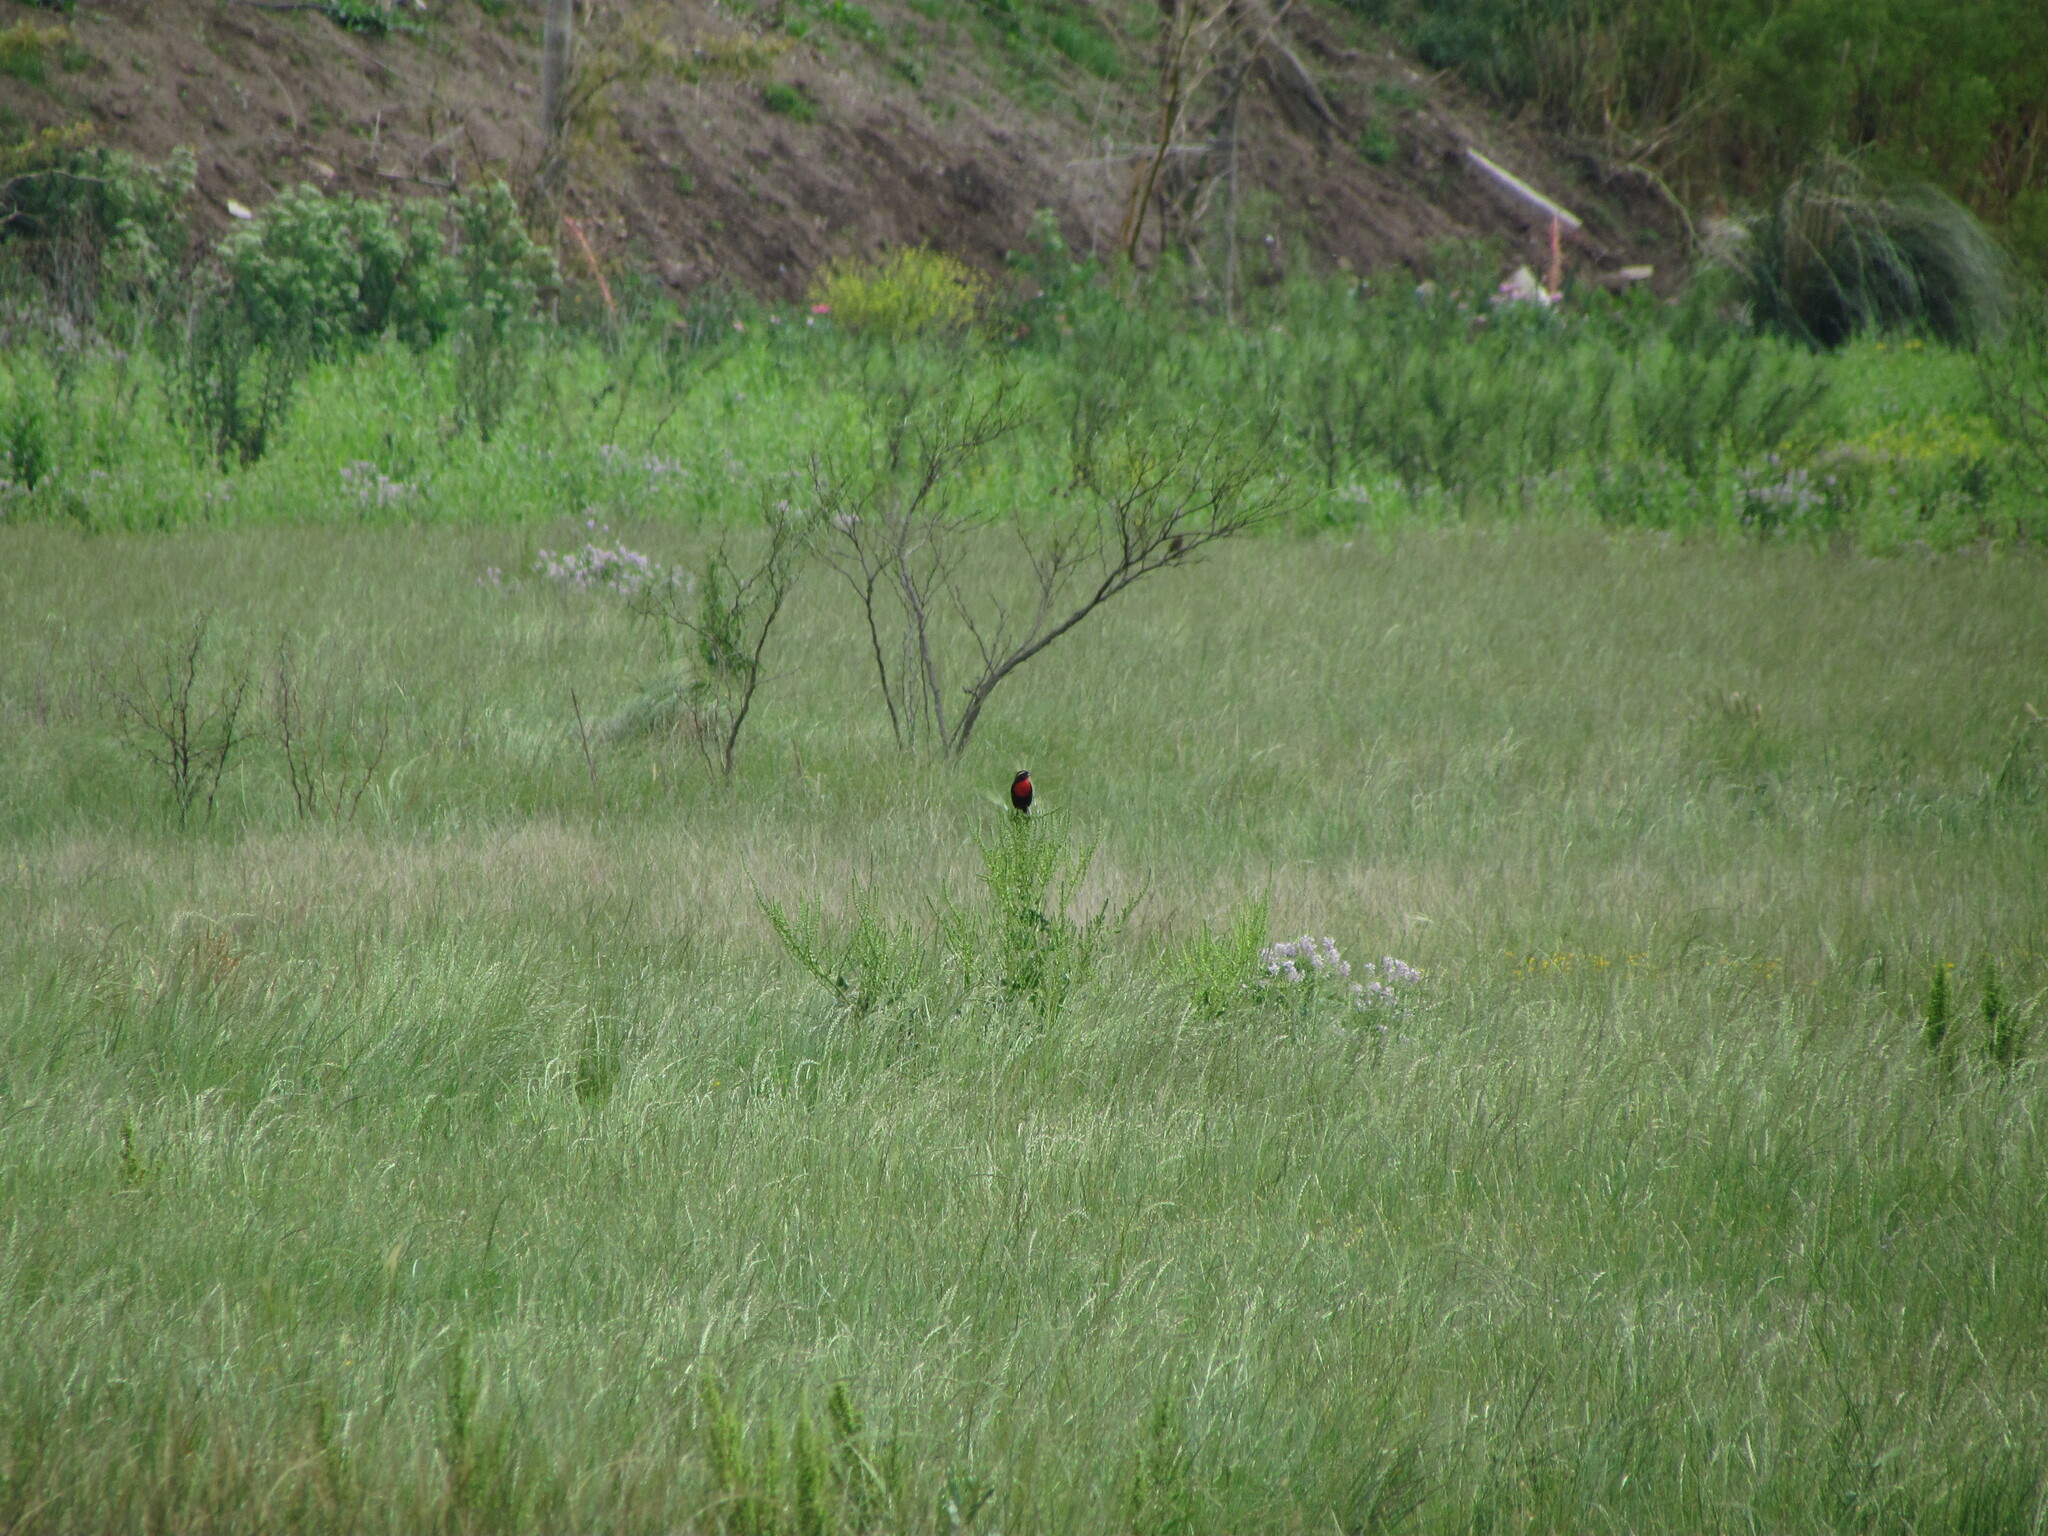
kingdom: Animalia
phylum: Chordata
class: Aves
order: Passeriformes
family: Icteridae
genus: Sturnella
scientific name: Sturnella superciliaris
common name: White-browed blackbird
